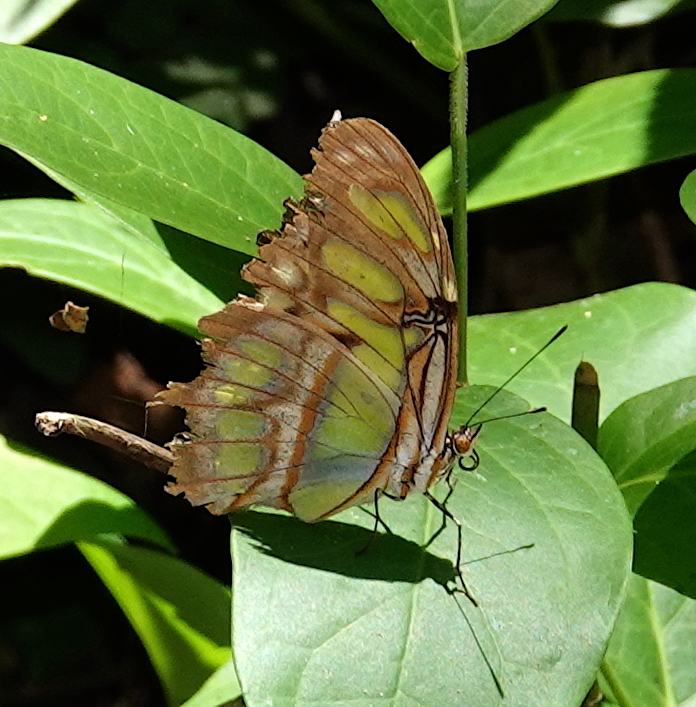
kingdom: Animalia
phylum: Arthropoda
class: Insecta
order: Lepidoptera
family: Nymphalidae
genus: Siproeta
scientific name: Siproeta stelenes
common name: Malachite
